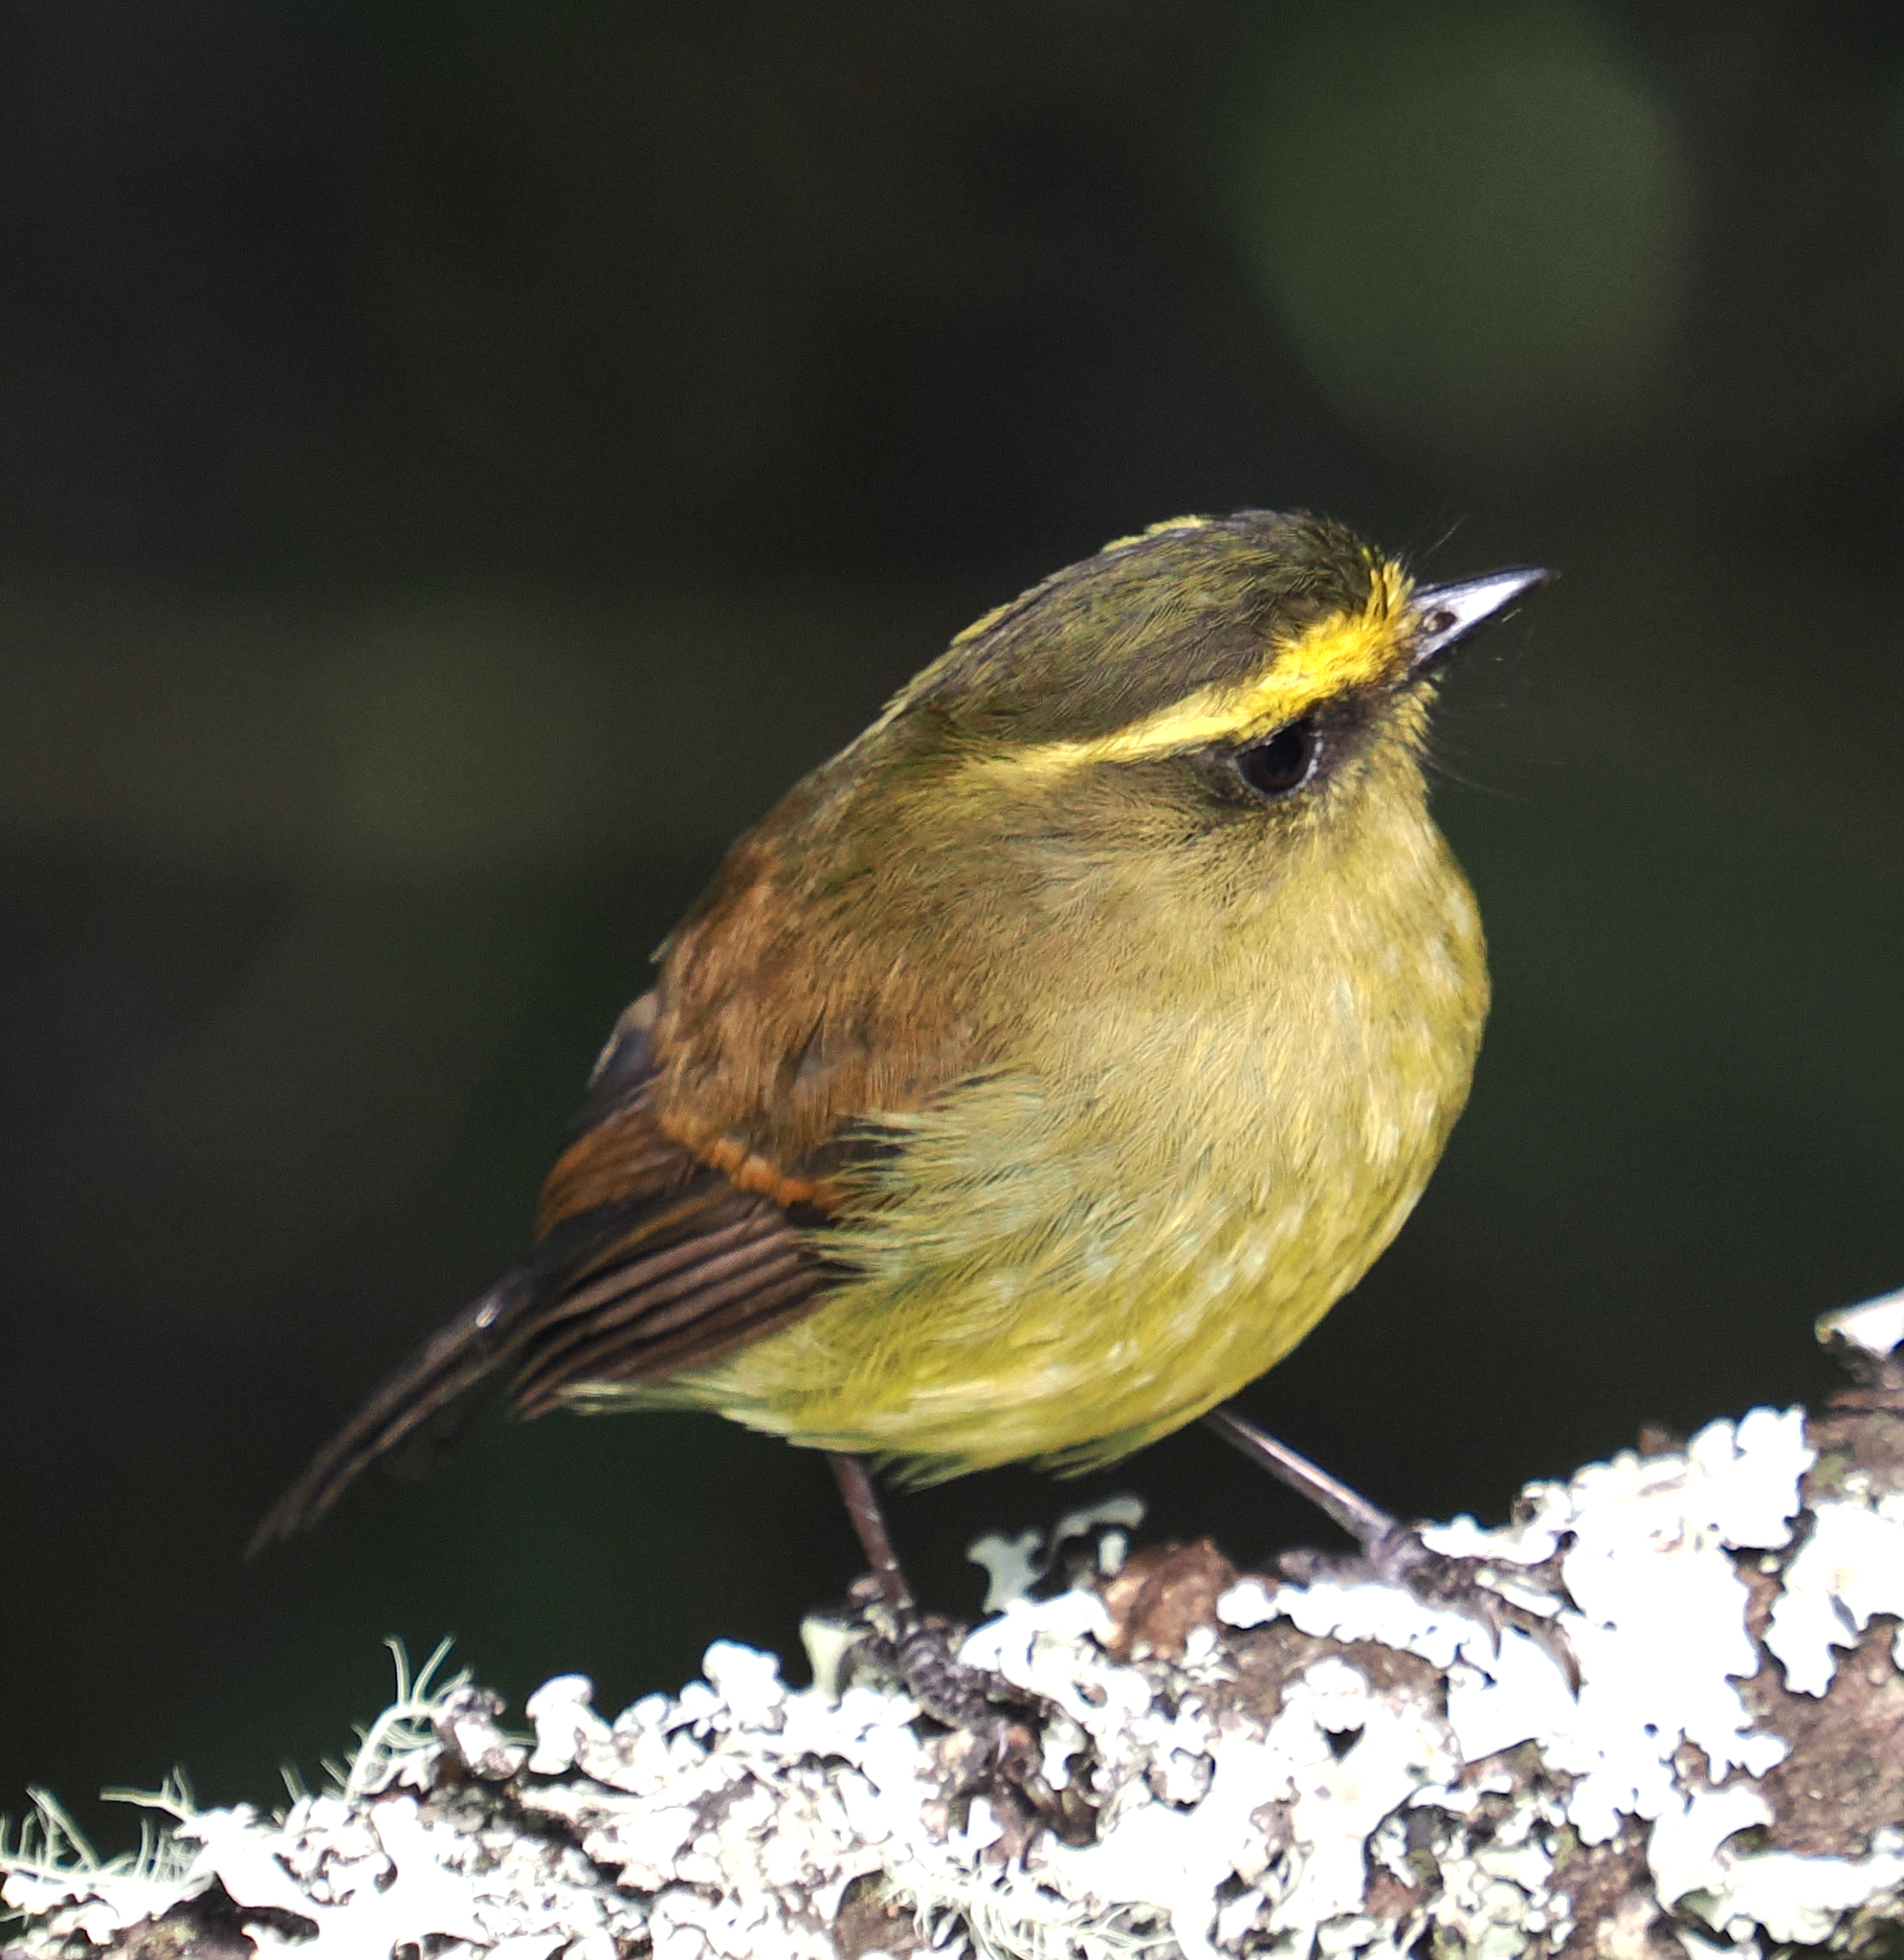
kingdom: Animalia
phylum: Chordata
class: Aves
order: Passeriformes
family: Tyrannidae
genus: Ochthoeca
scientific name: Ochthoeca diadema
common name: Yellow-bellied chat-tyrant
